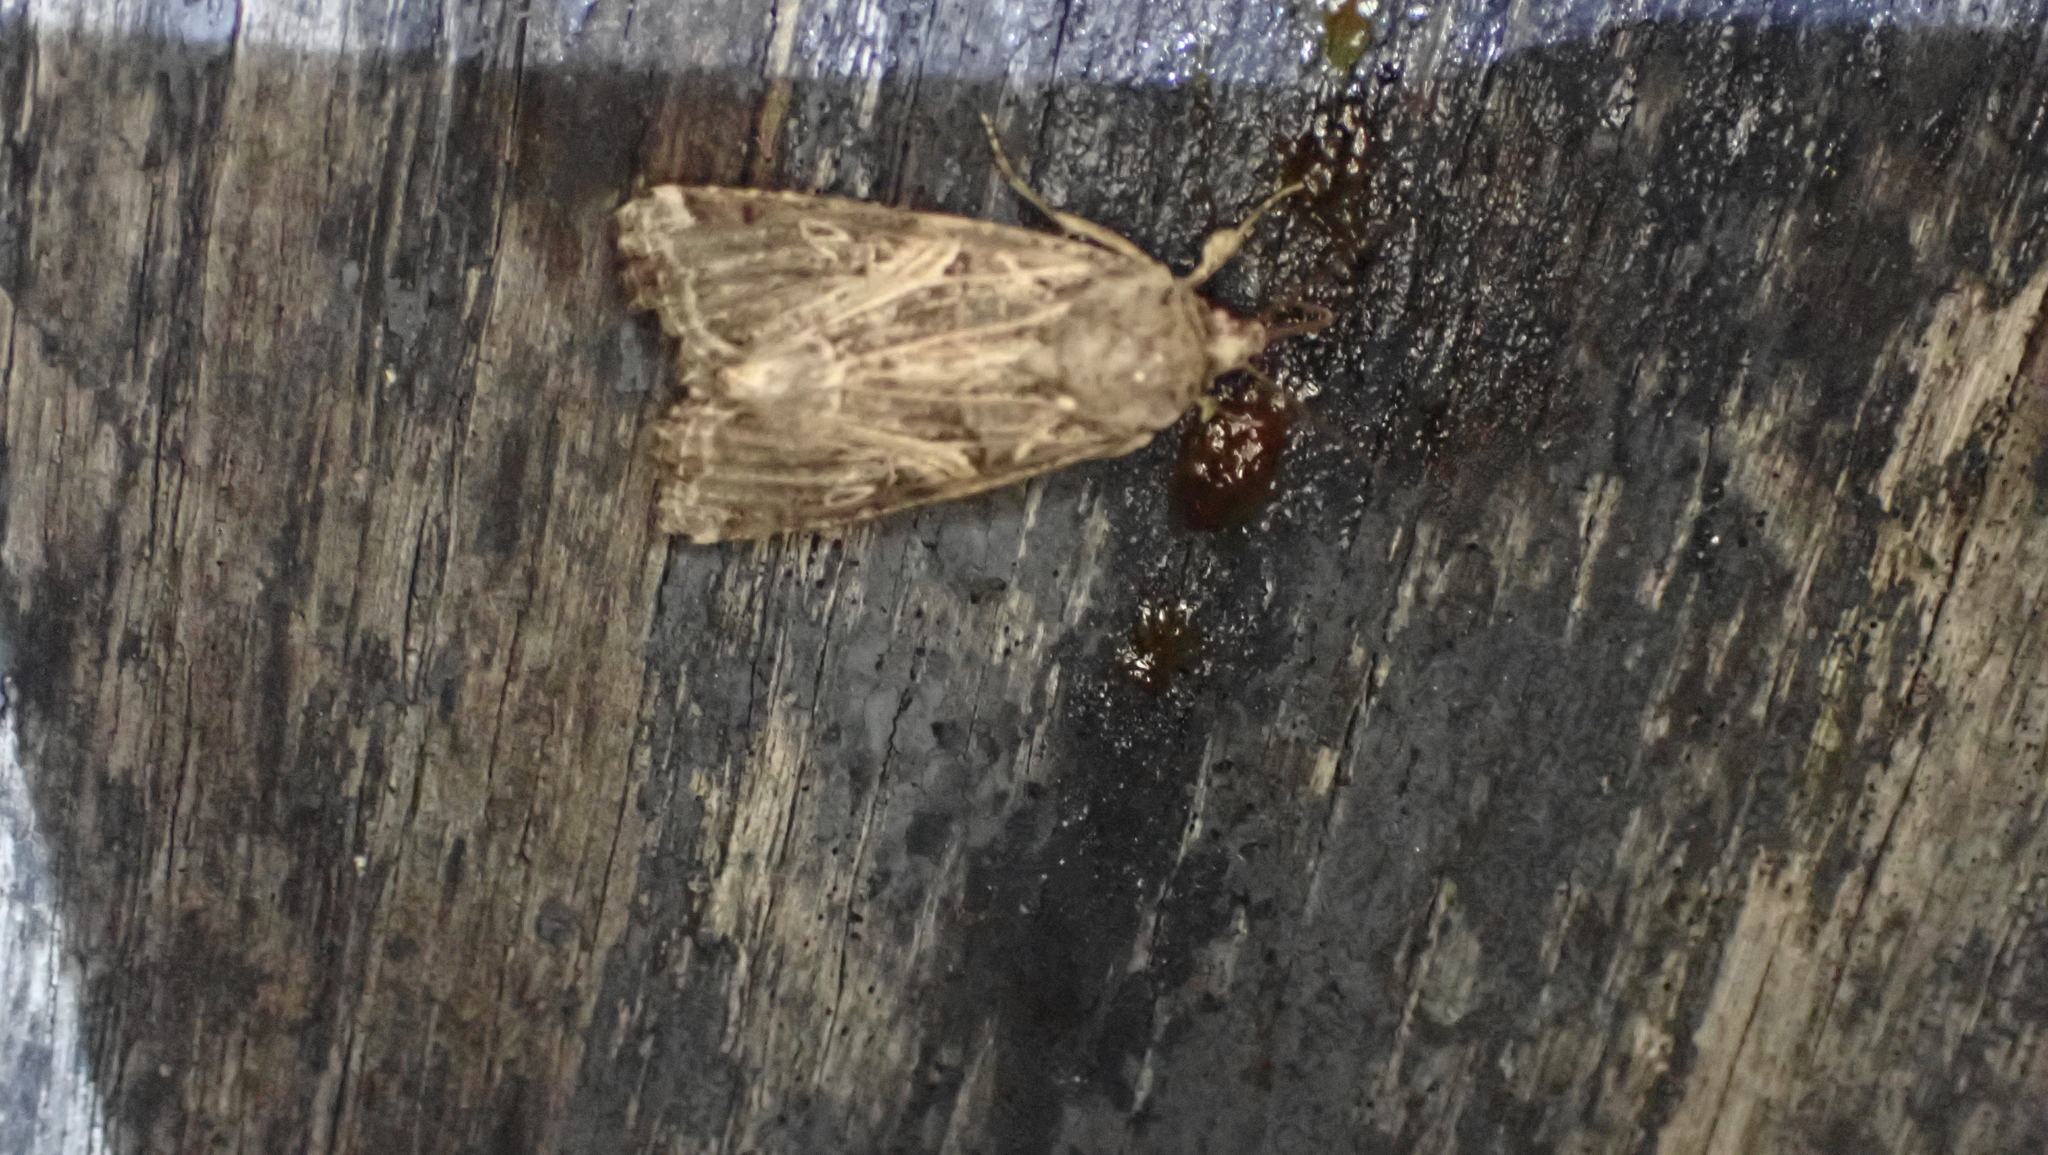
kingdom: Animalia
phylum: Arthropoda
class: Insecta
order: Lepidoptera
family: Noctuidae
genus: Spodoptera
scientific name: Spodoptera ornithogalli
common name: Yellow-striped armyworm
